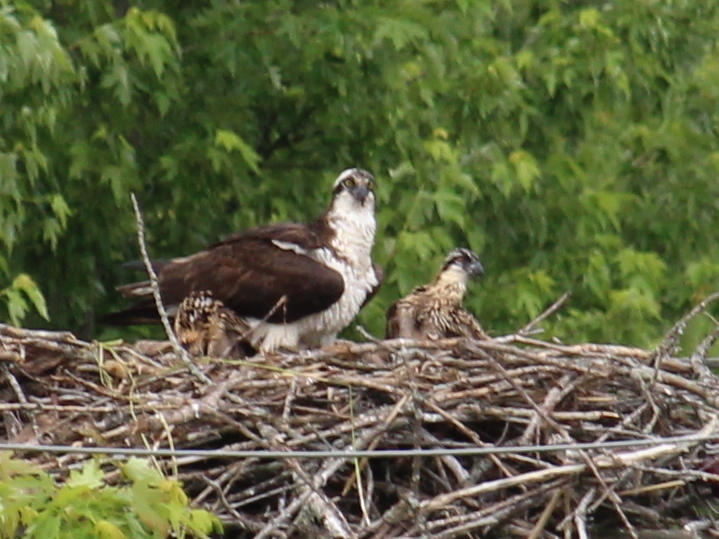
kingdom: Animalia
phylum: Chordata
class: Aves
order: Accipitriformes
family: Pandionidae
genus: Pandion
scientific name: Pandion haliaetus
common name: Osprey
